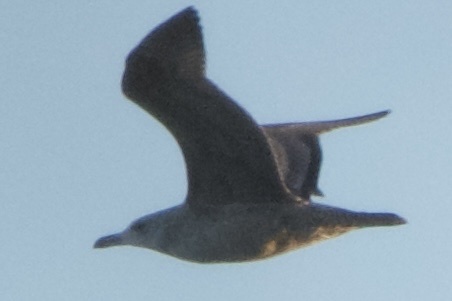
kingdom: Animalia
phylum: Chordata
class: Aves
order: Charadriiformes
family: Laridae
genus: Larus
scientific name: Larus argentatus
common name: Herring gull
